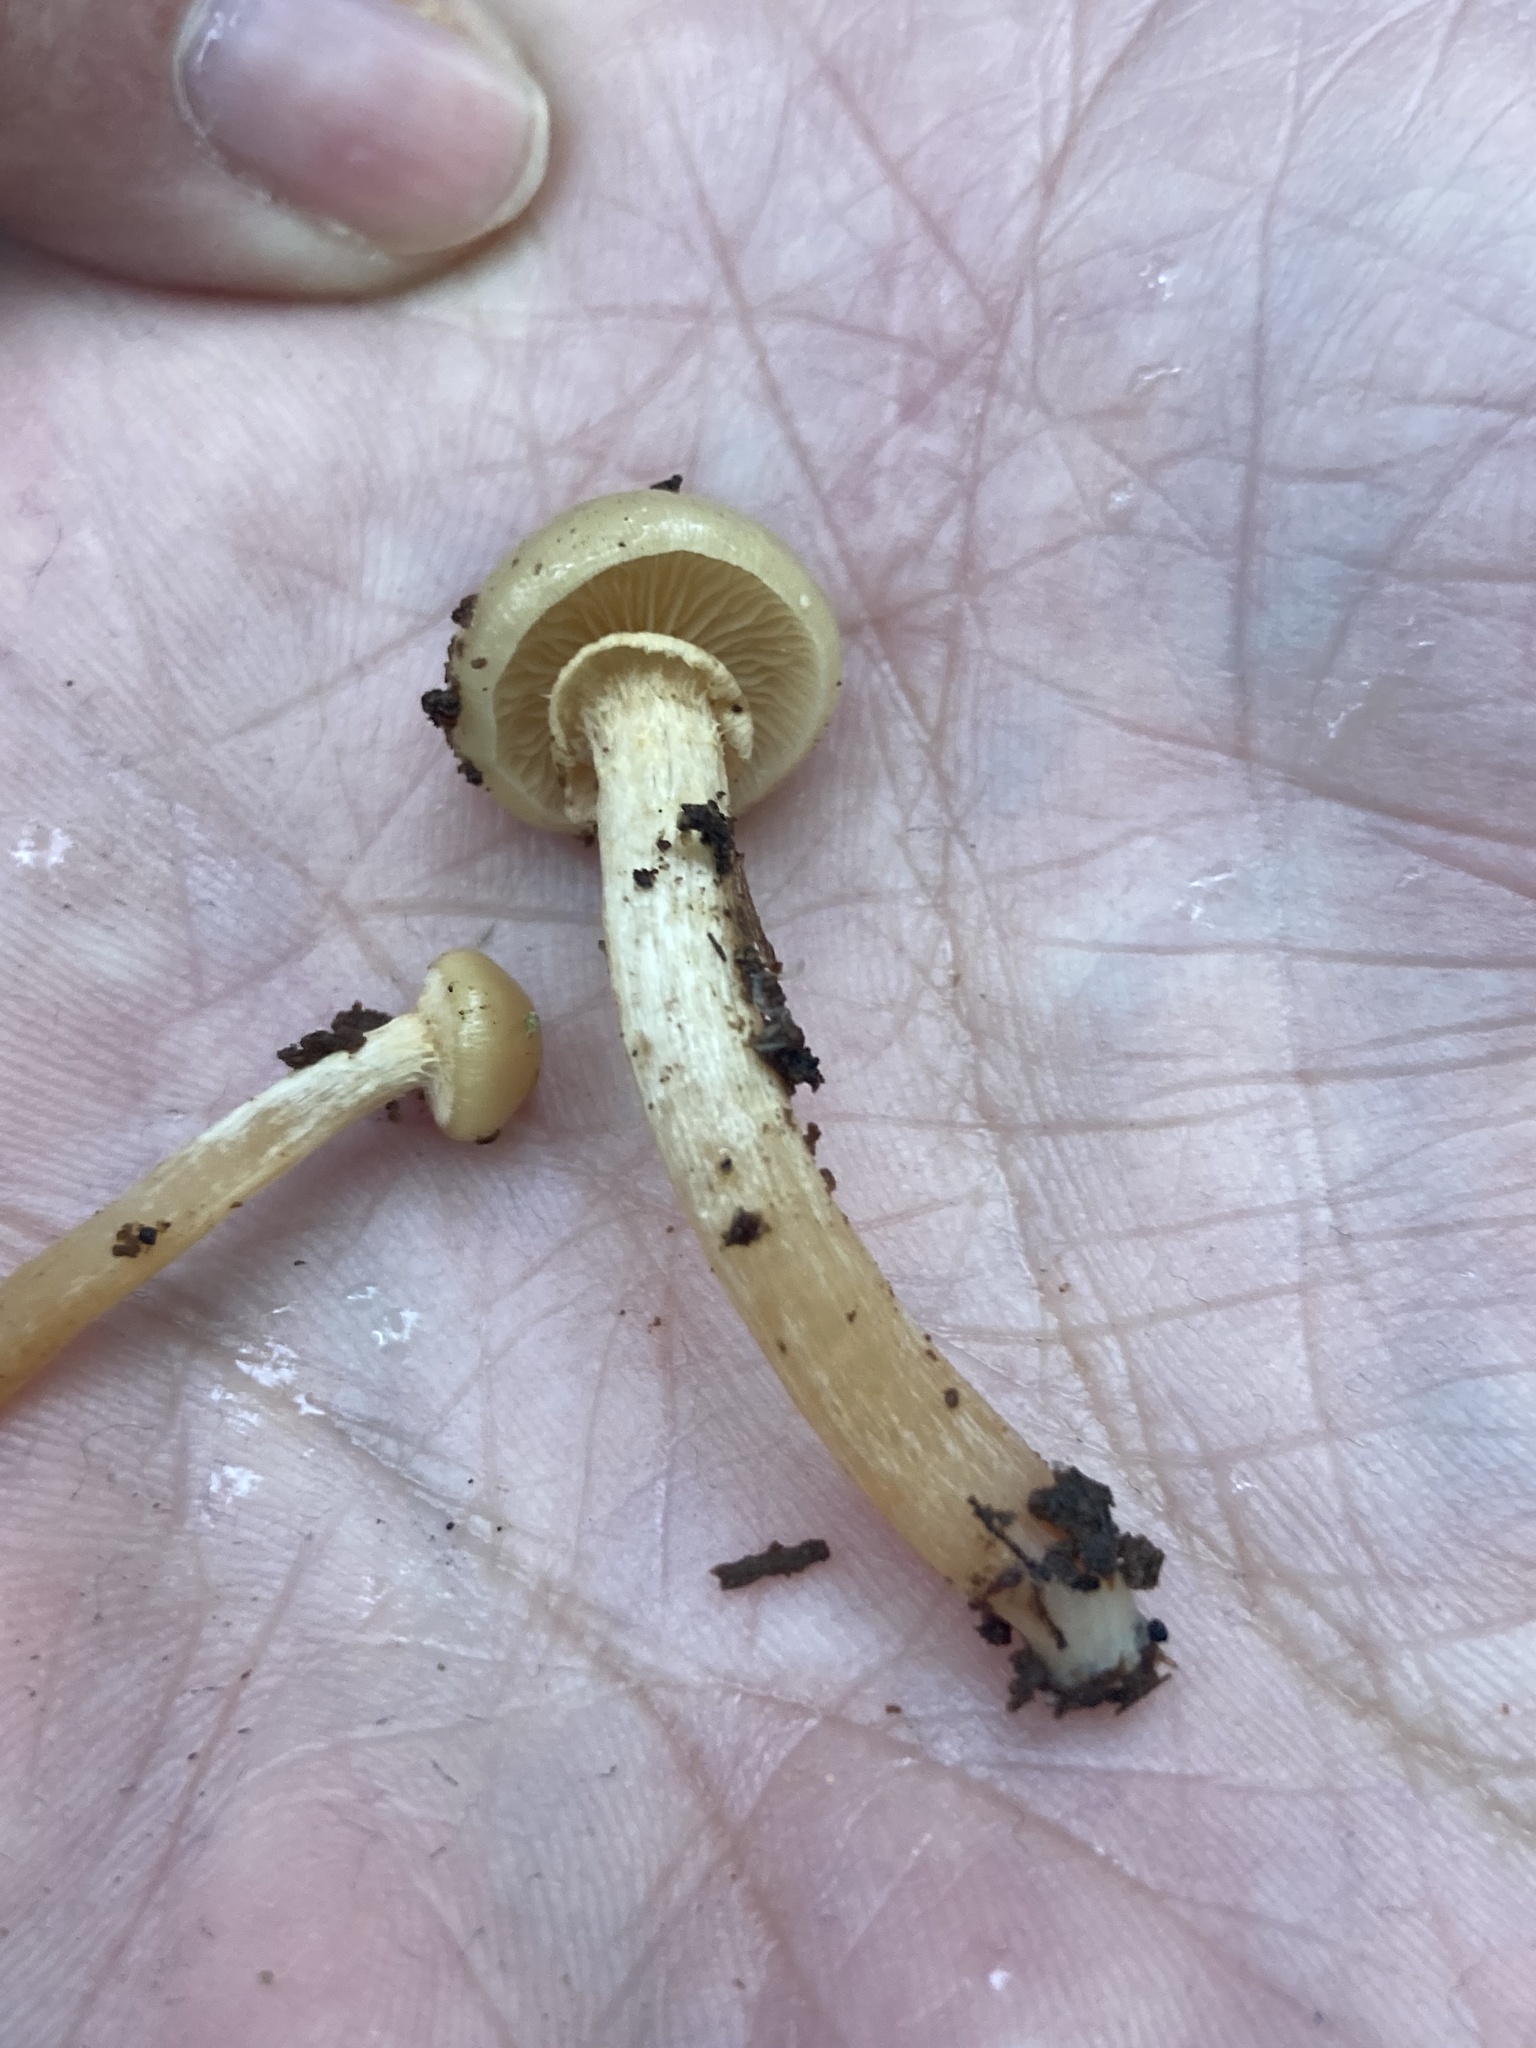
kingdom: Fungi
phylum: Basidiomycota
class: Agaricomycetes
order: Agaricales
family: Strophariaceae
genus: Kuehneromyces
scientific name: Kuehneromyces marginellus
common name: Sheathed woodtuft
